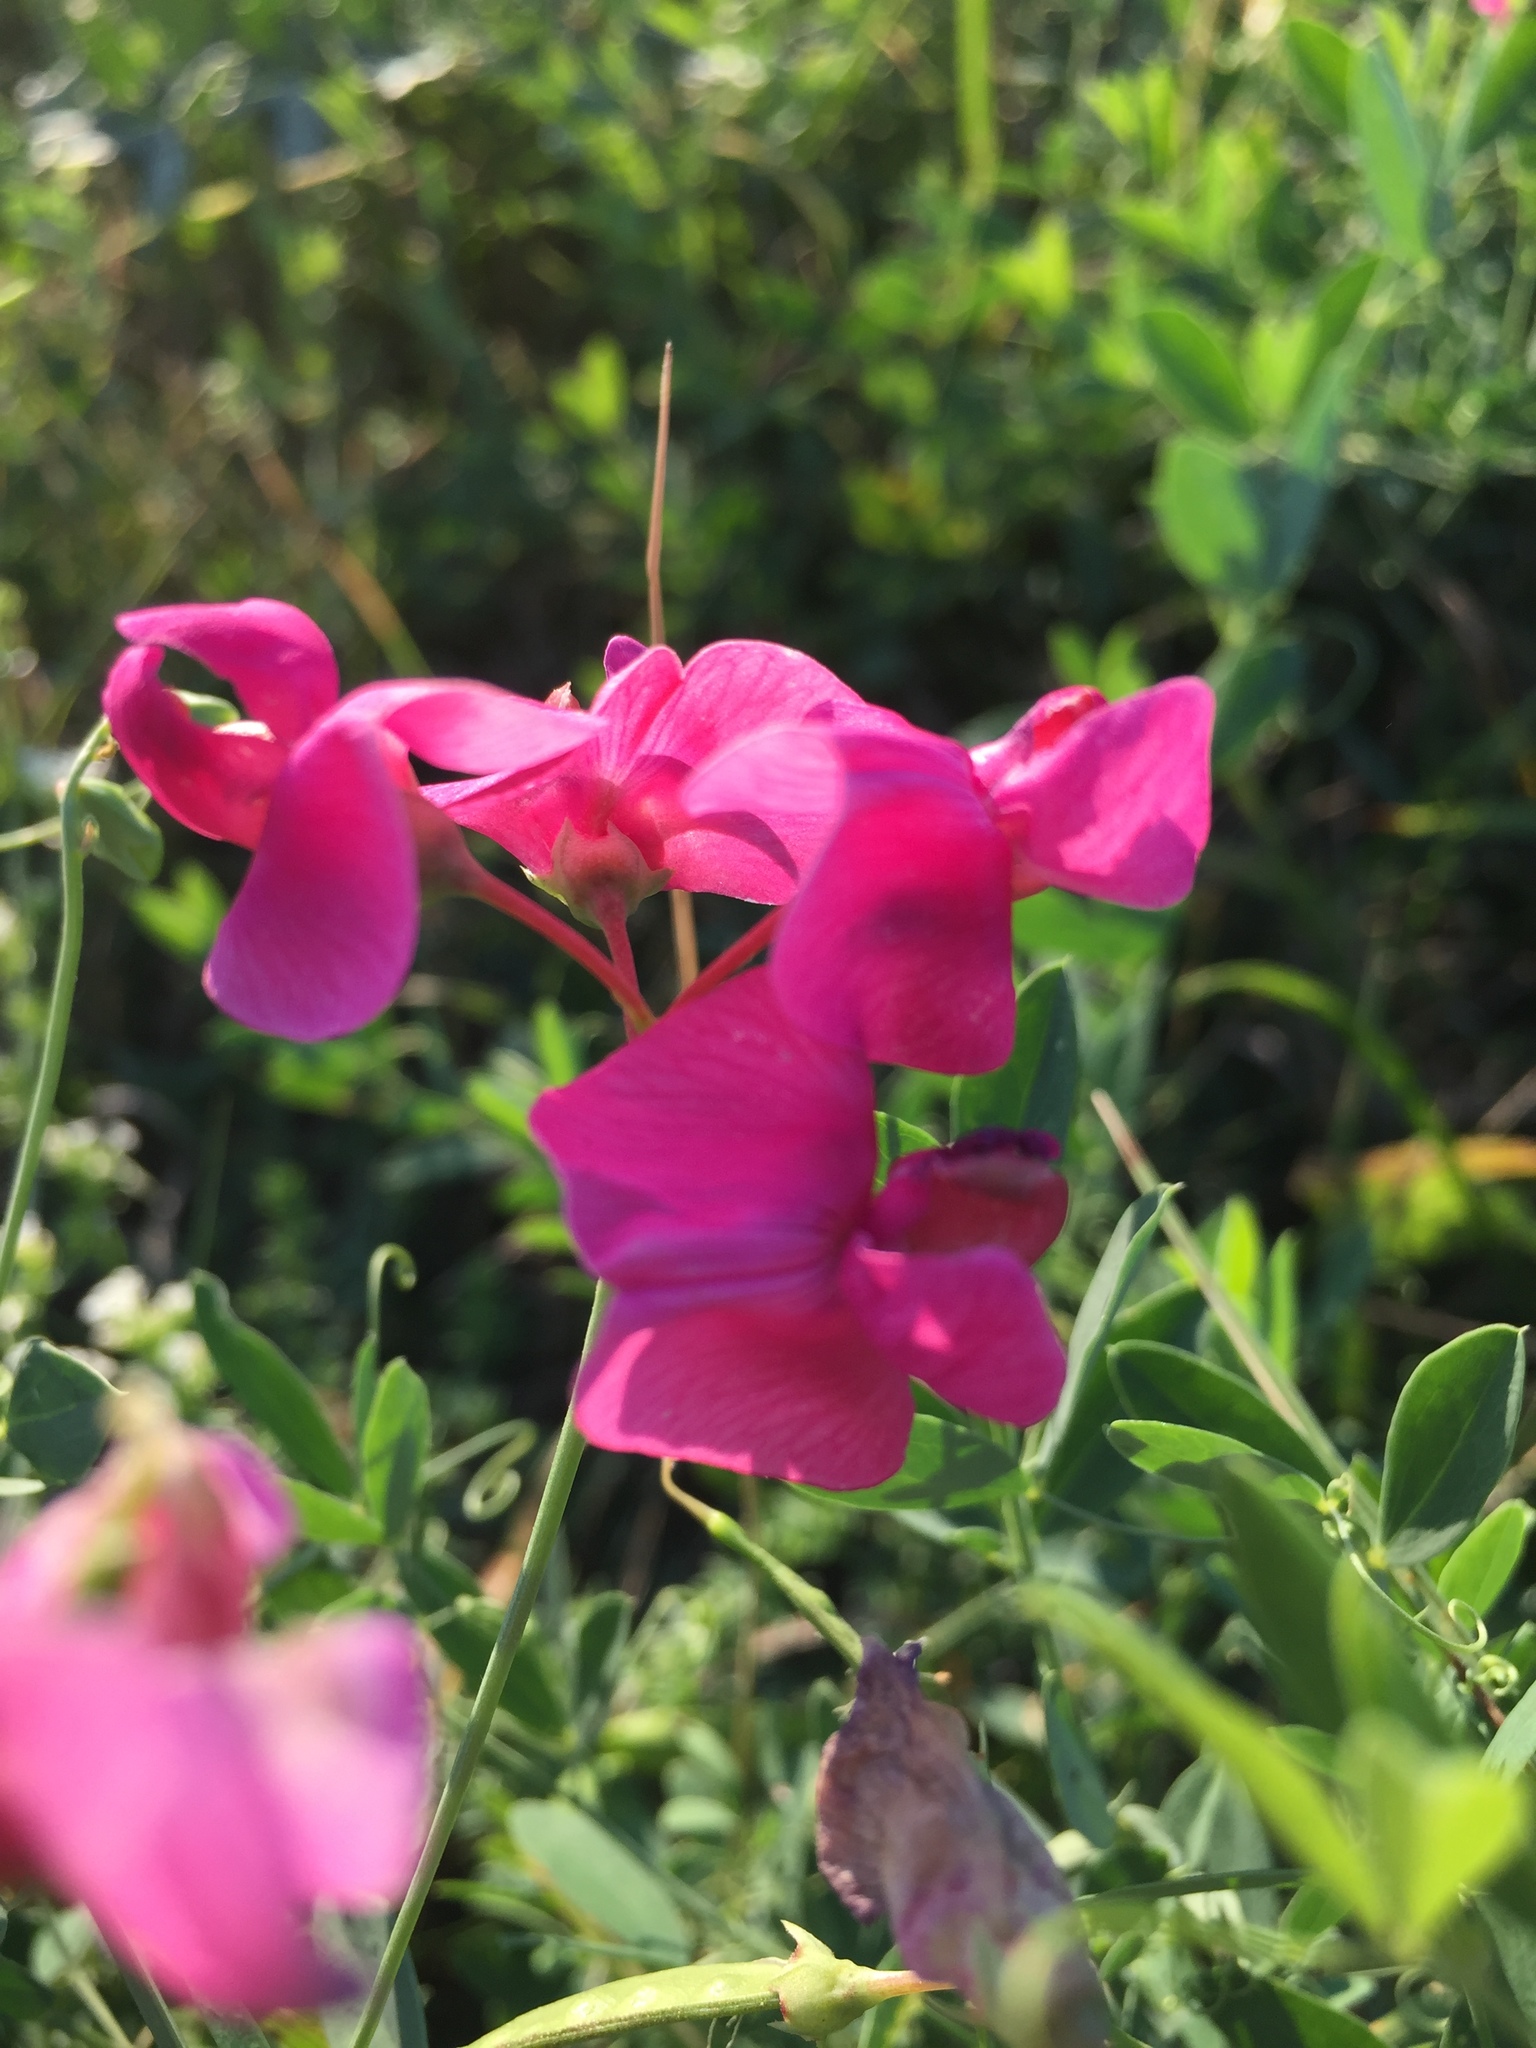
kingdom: Plantae
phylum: Tracheophyta
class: Magnoliopsida
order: Fabales
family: Fabaceae
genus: Lathyrus
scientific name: Lathyrus tuberosus
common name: Tuberous pea
